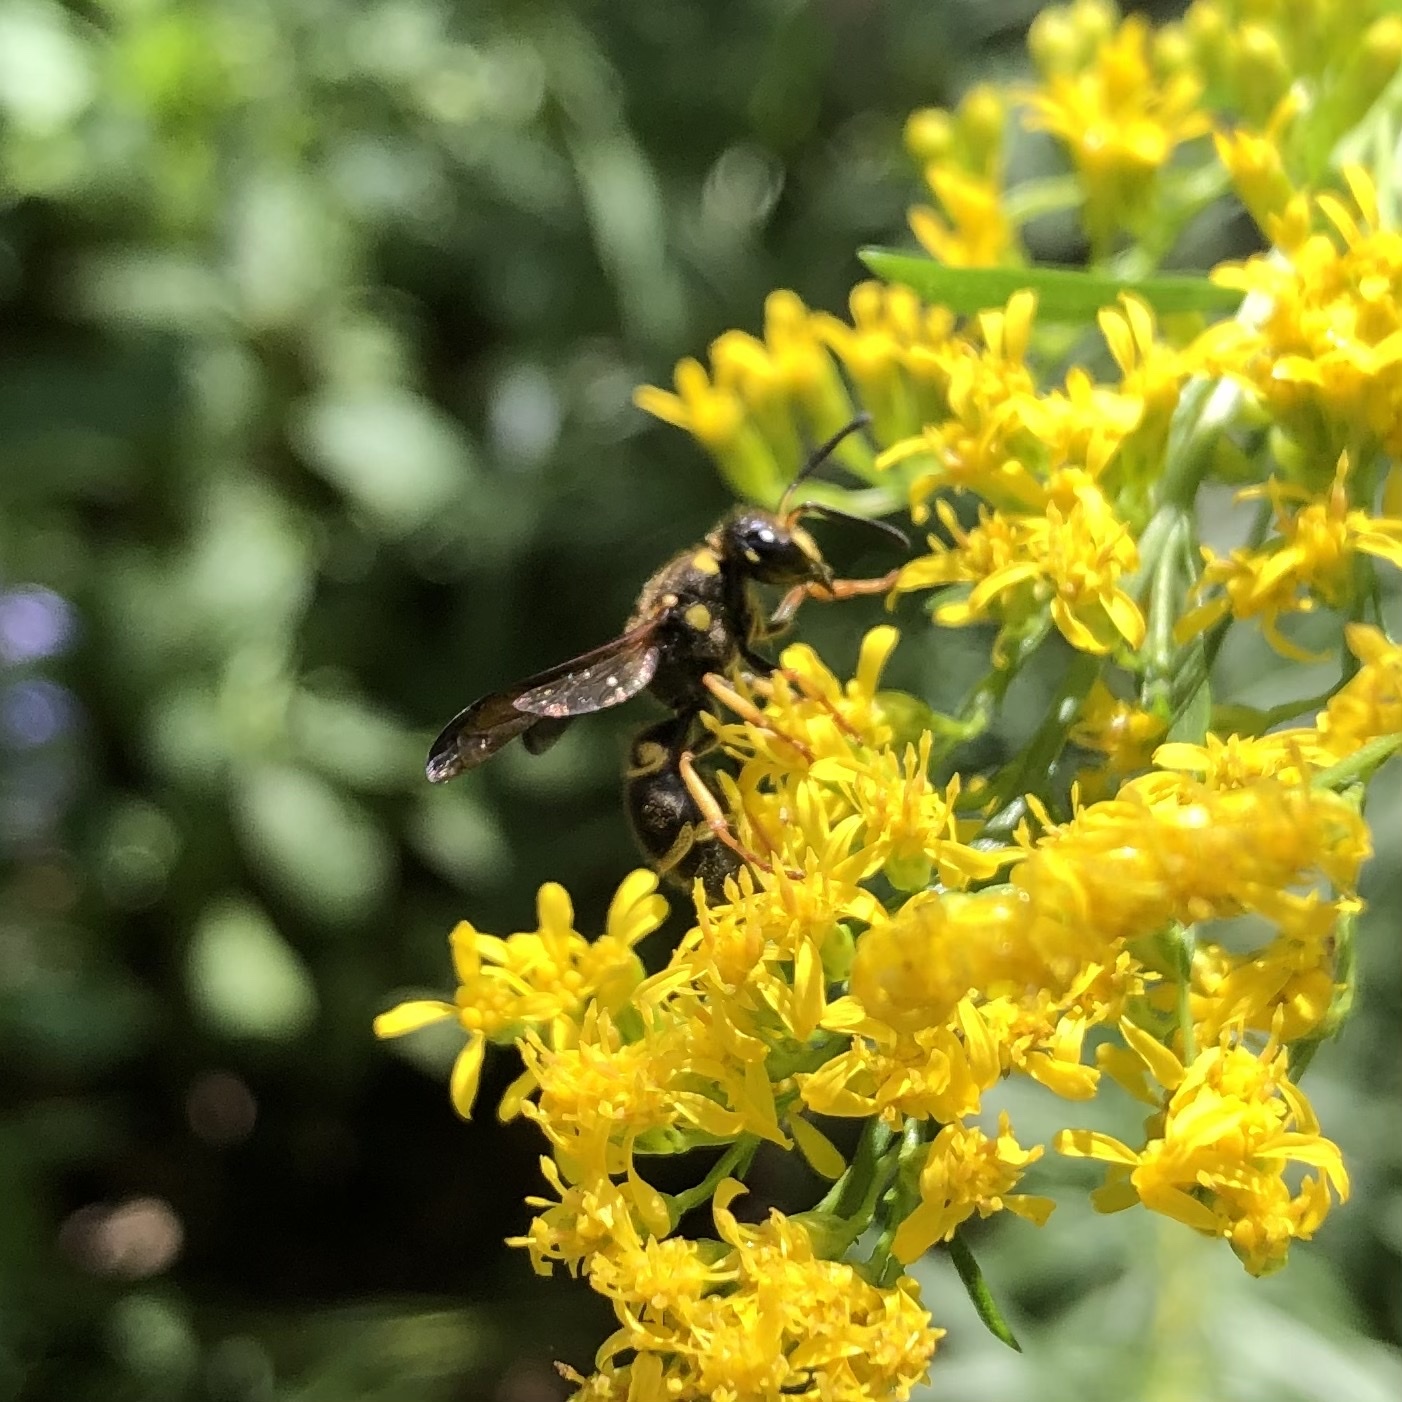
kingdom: Animalia
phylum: Arthropoda
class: Insecta
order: Hymenoptera
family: Vespidae
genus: Ancistrocerus
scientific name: Ancistrocerus campestris
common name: Smiling mason wasp
